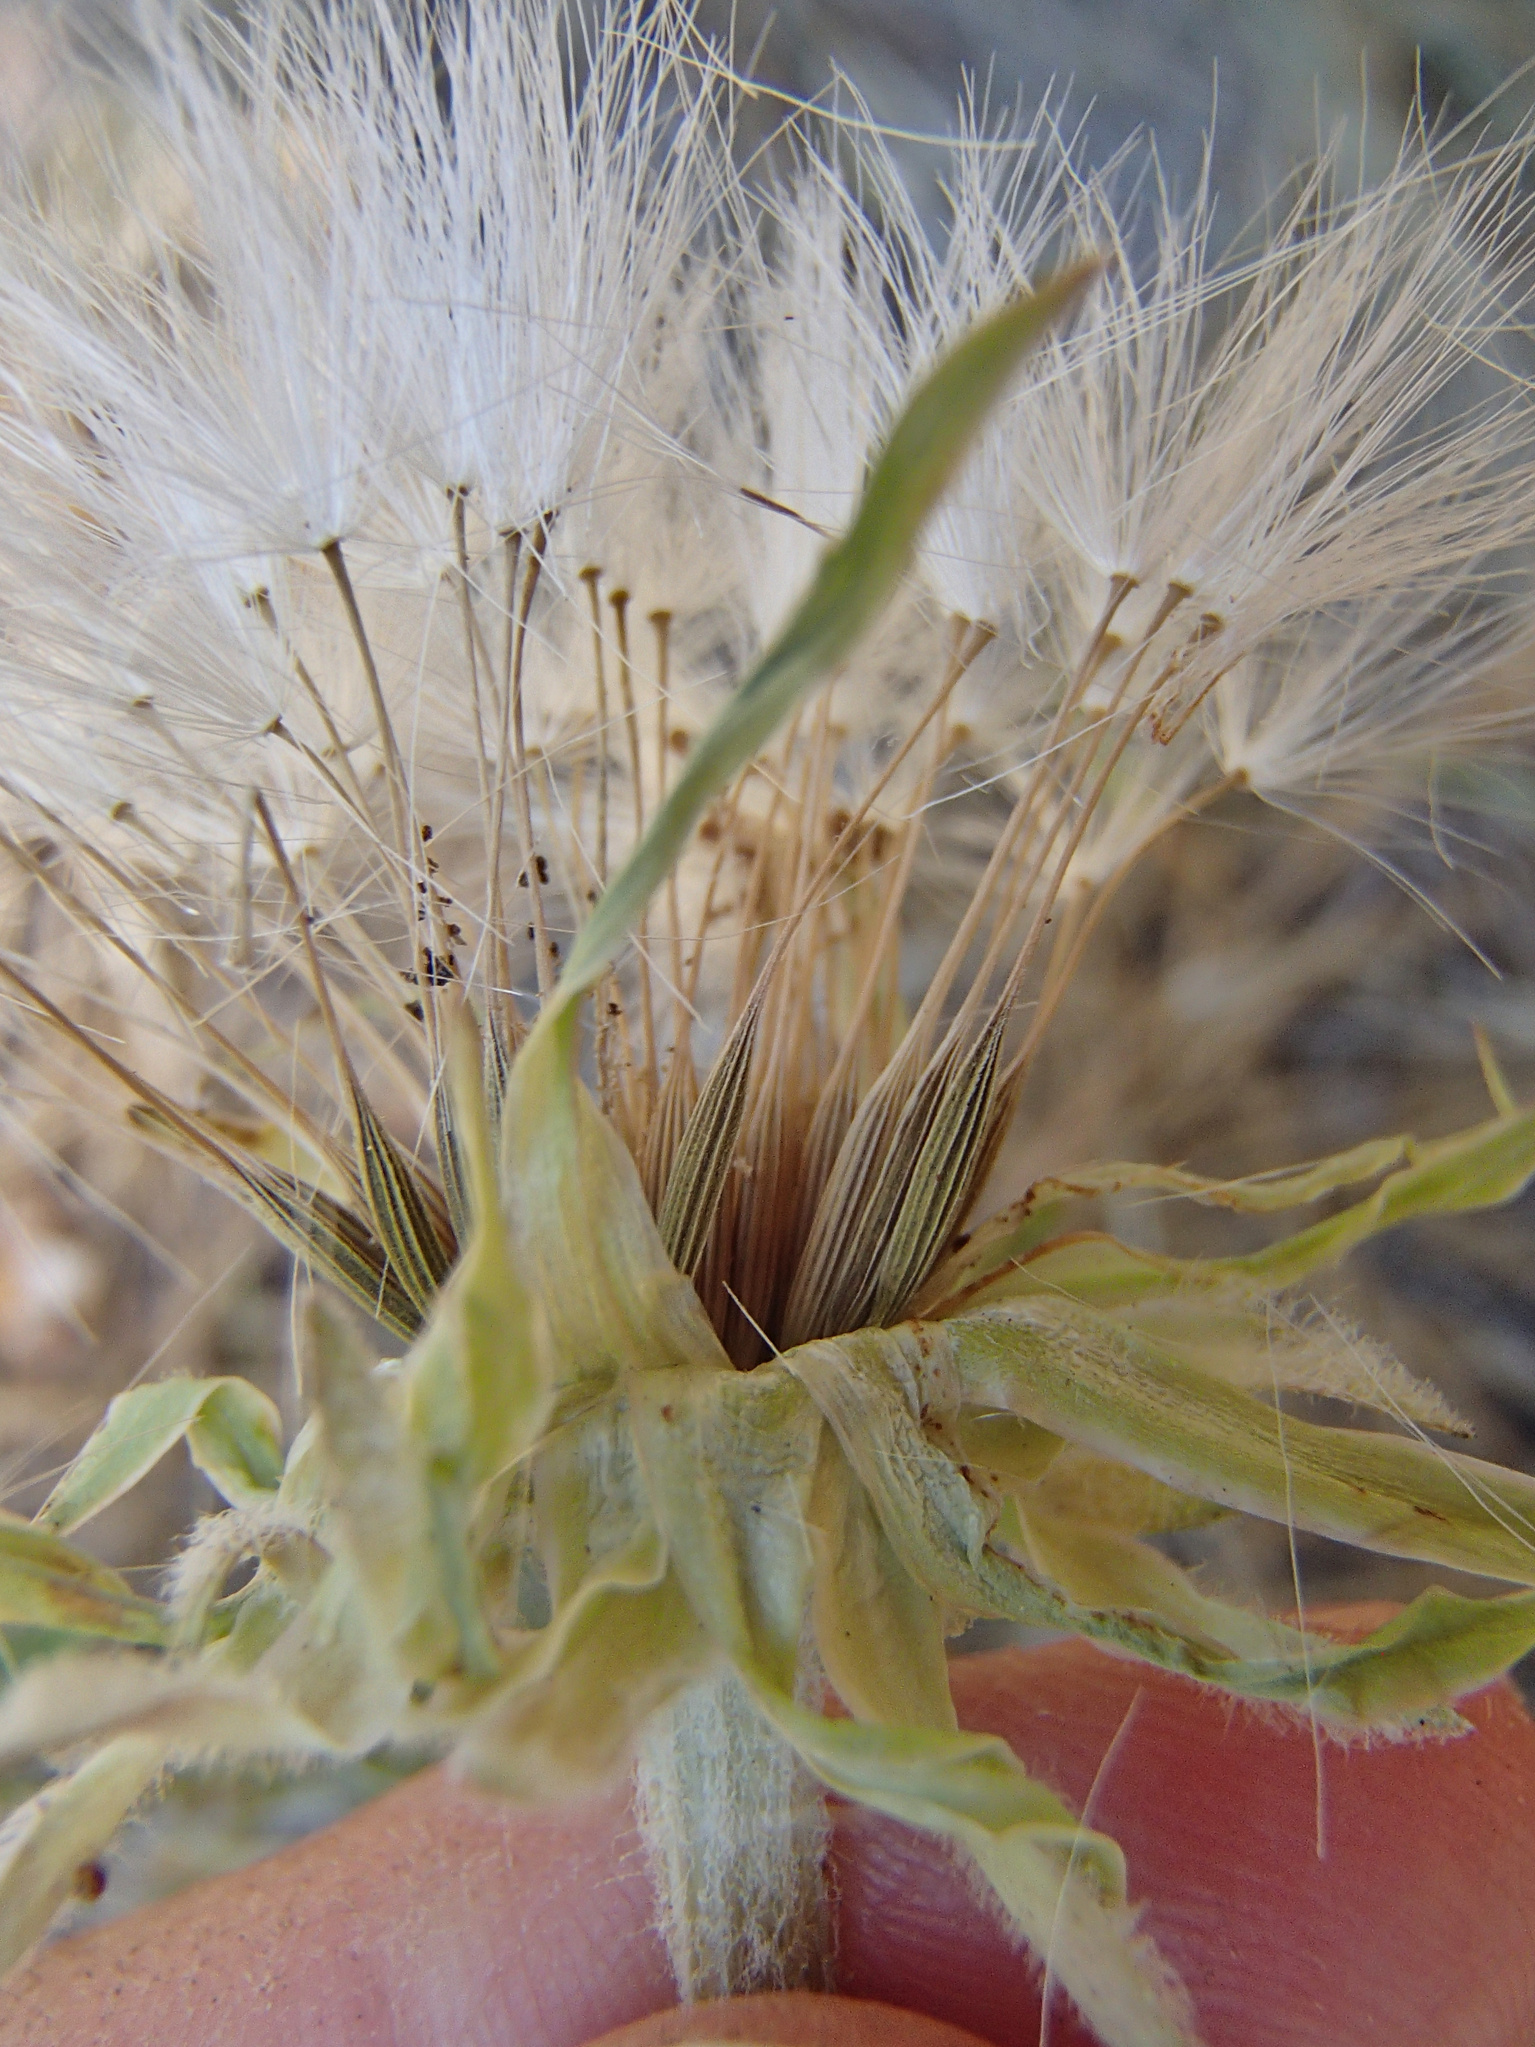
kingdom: Plantae
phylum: Tracheophyta
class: Magnoliopsida
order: Asterales
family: Asteraceae
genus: Agoseris
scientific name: Agoseris grandiflora
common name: Grassland agoseris
